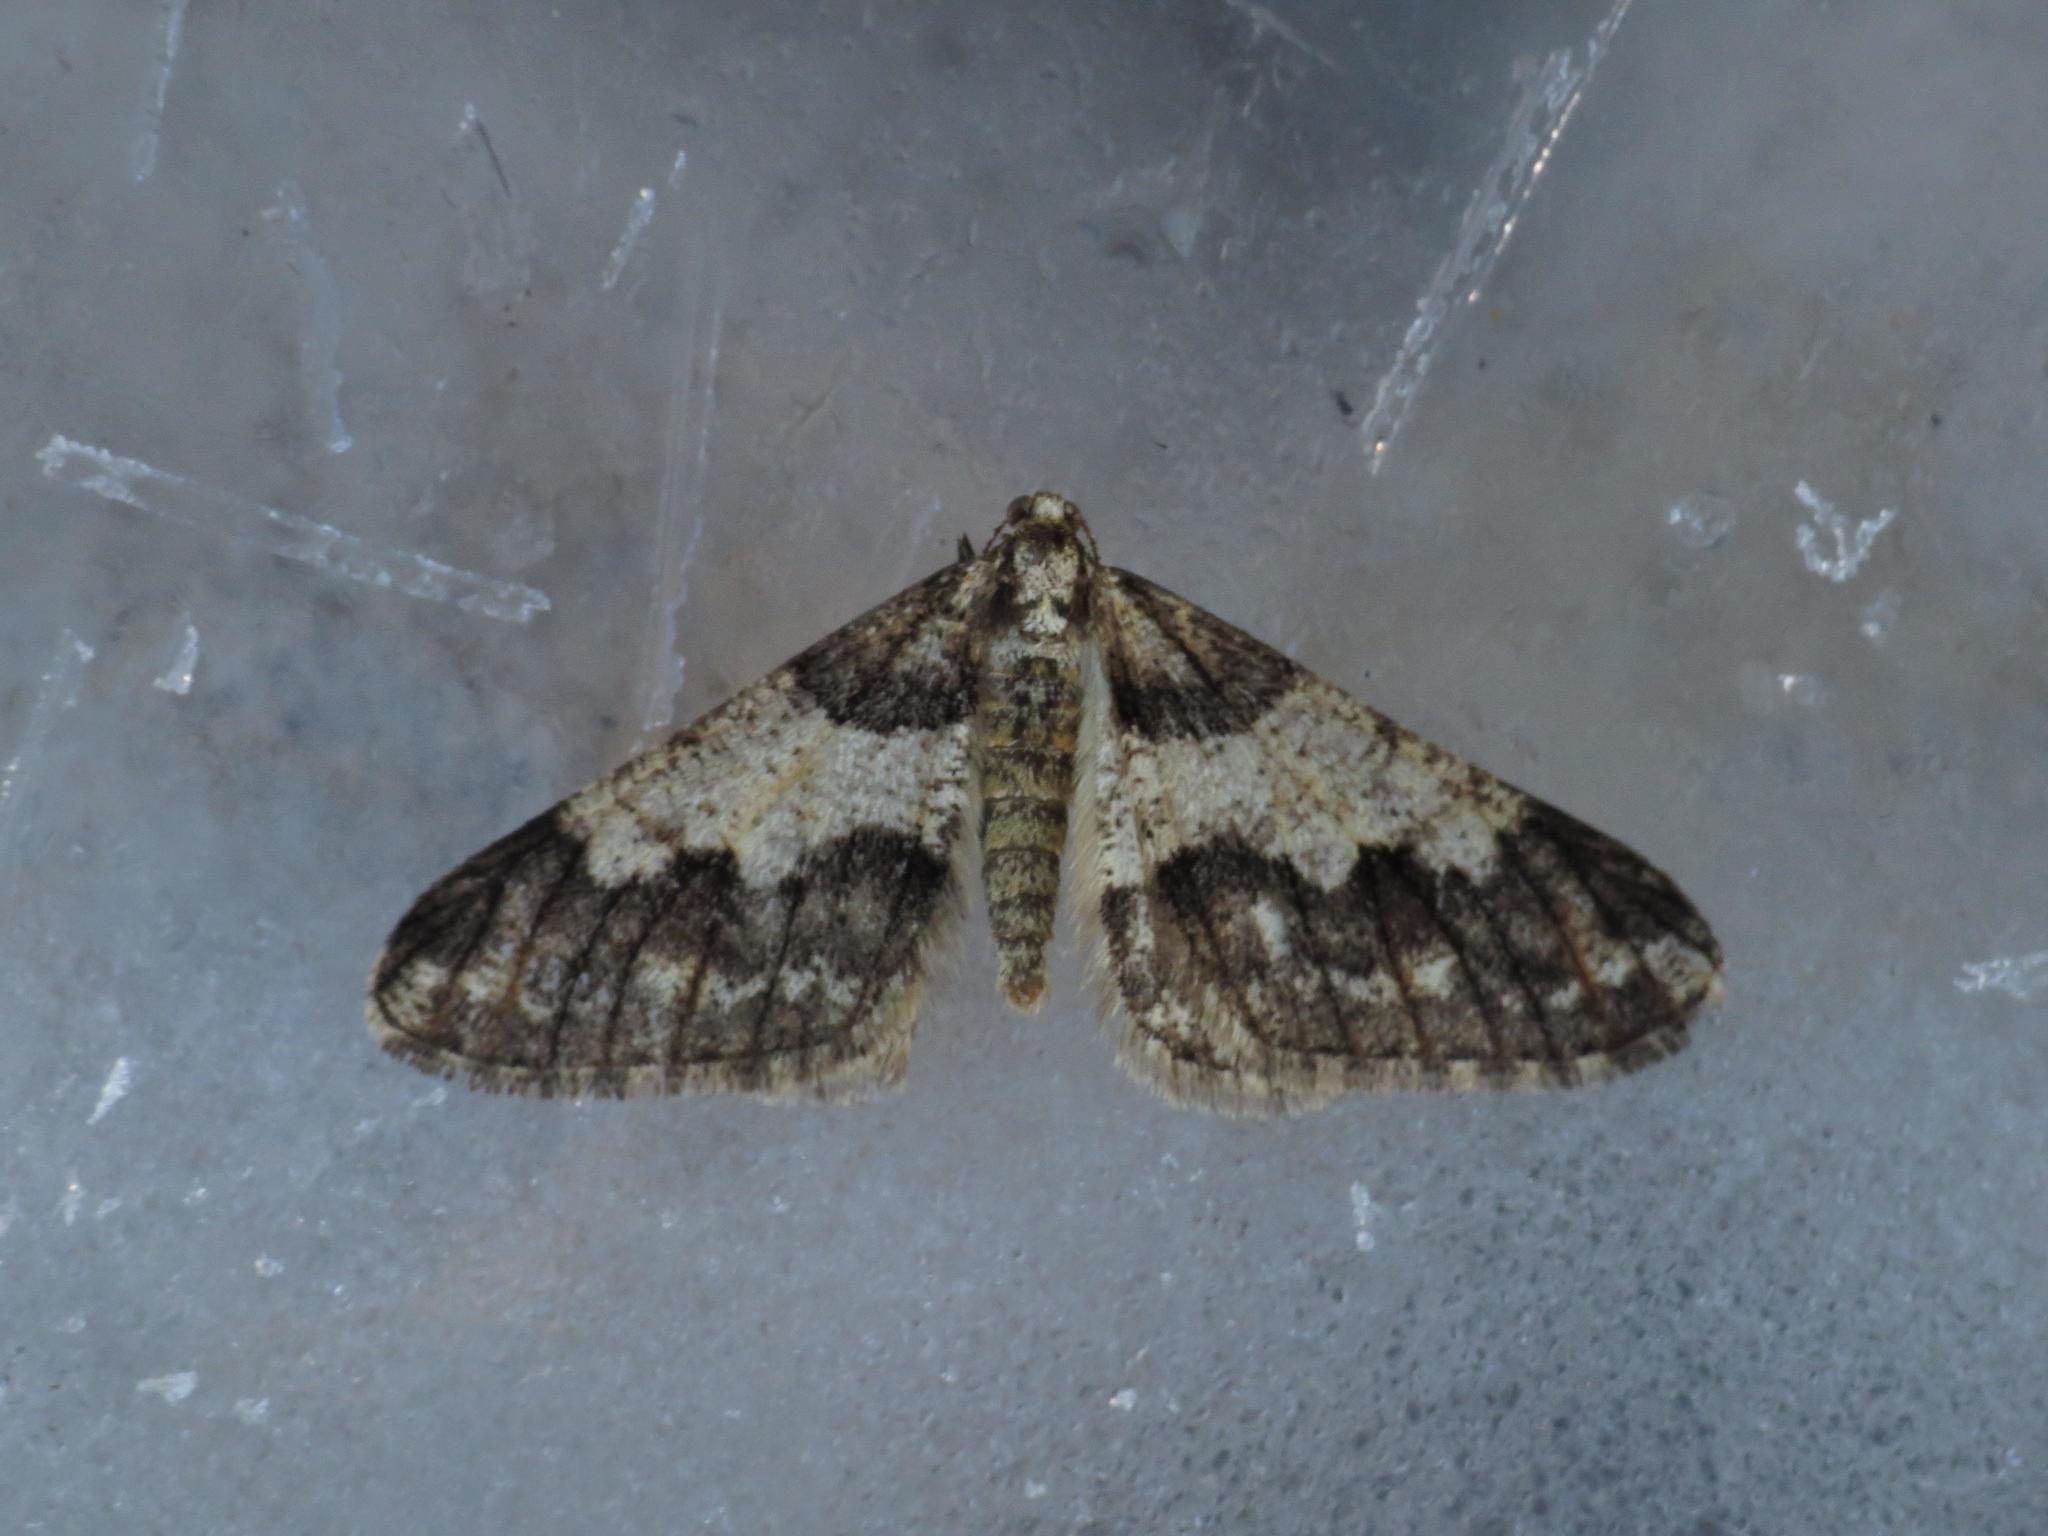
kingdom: Animalia
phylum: Arthropoda
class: Insecta
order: Lepidoptera
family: Geometridae
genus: Agriopis
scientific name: Agriopis leucophaearia
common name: Spring usher
